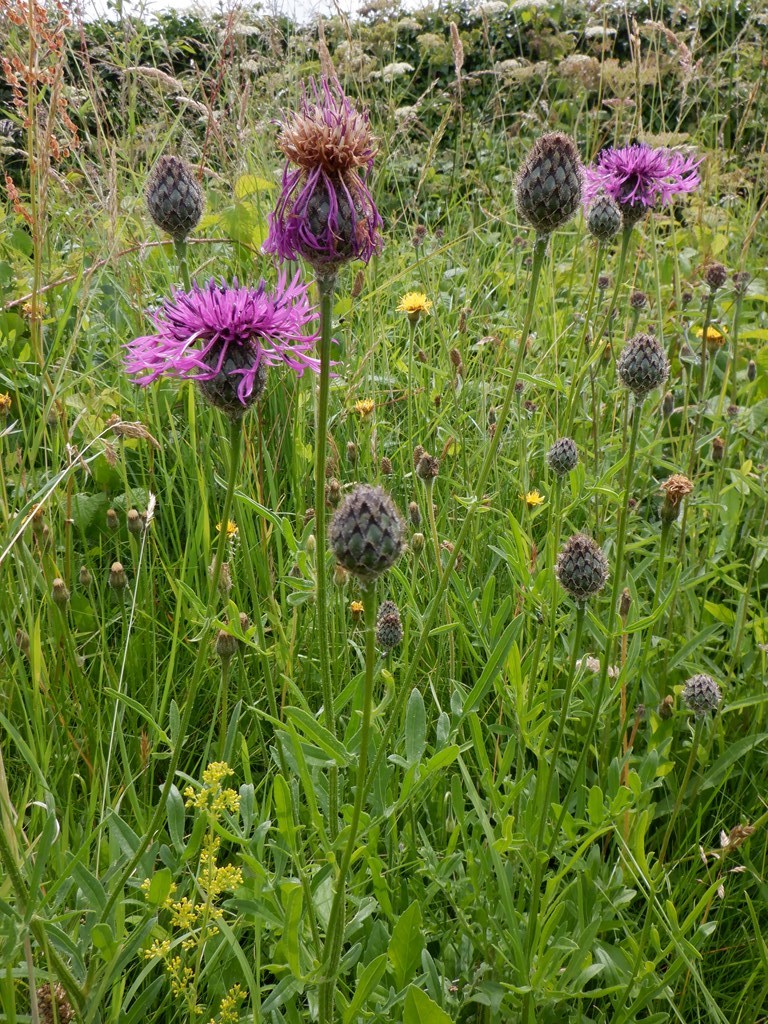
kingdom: Plantae
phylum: Tracheophyta
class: Magnoliopsida
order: Asterales
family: Asteraceae
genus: Centaurea
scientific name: Centaurea scabiosa
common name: Greater knapweed
